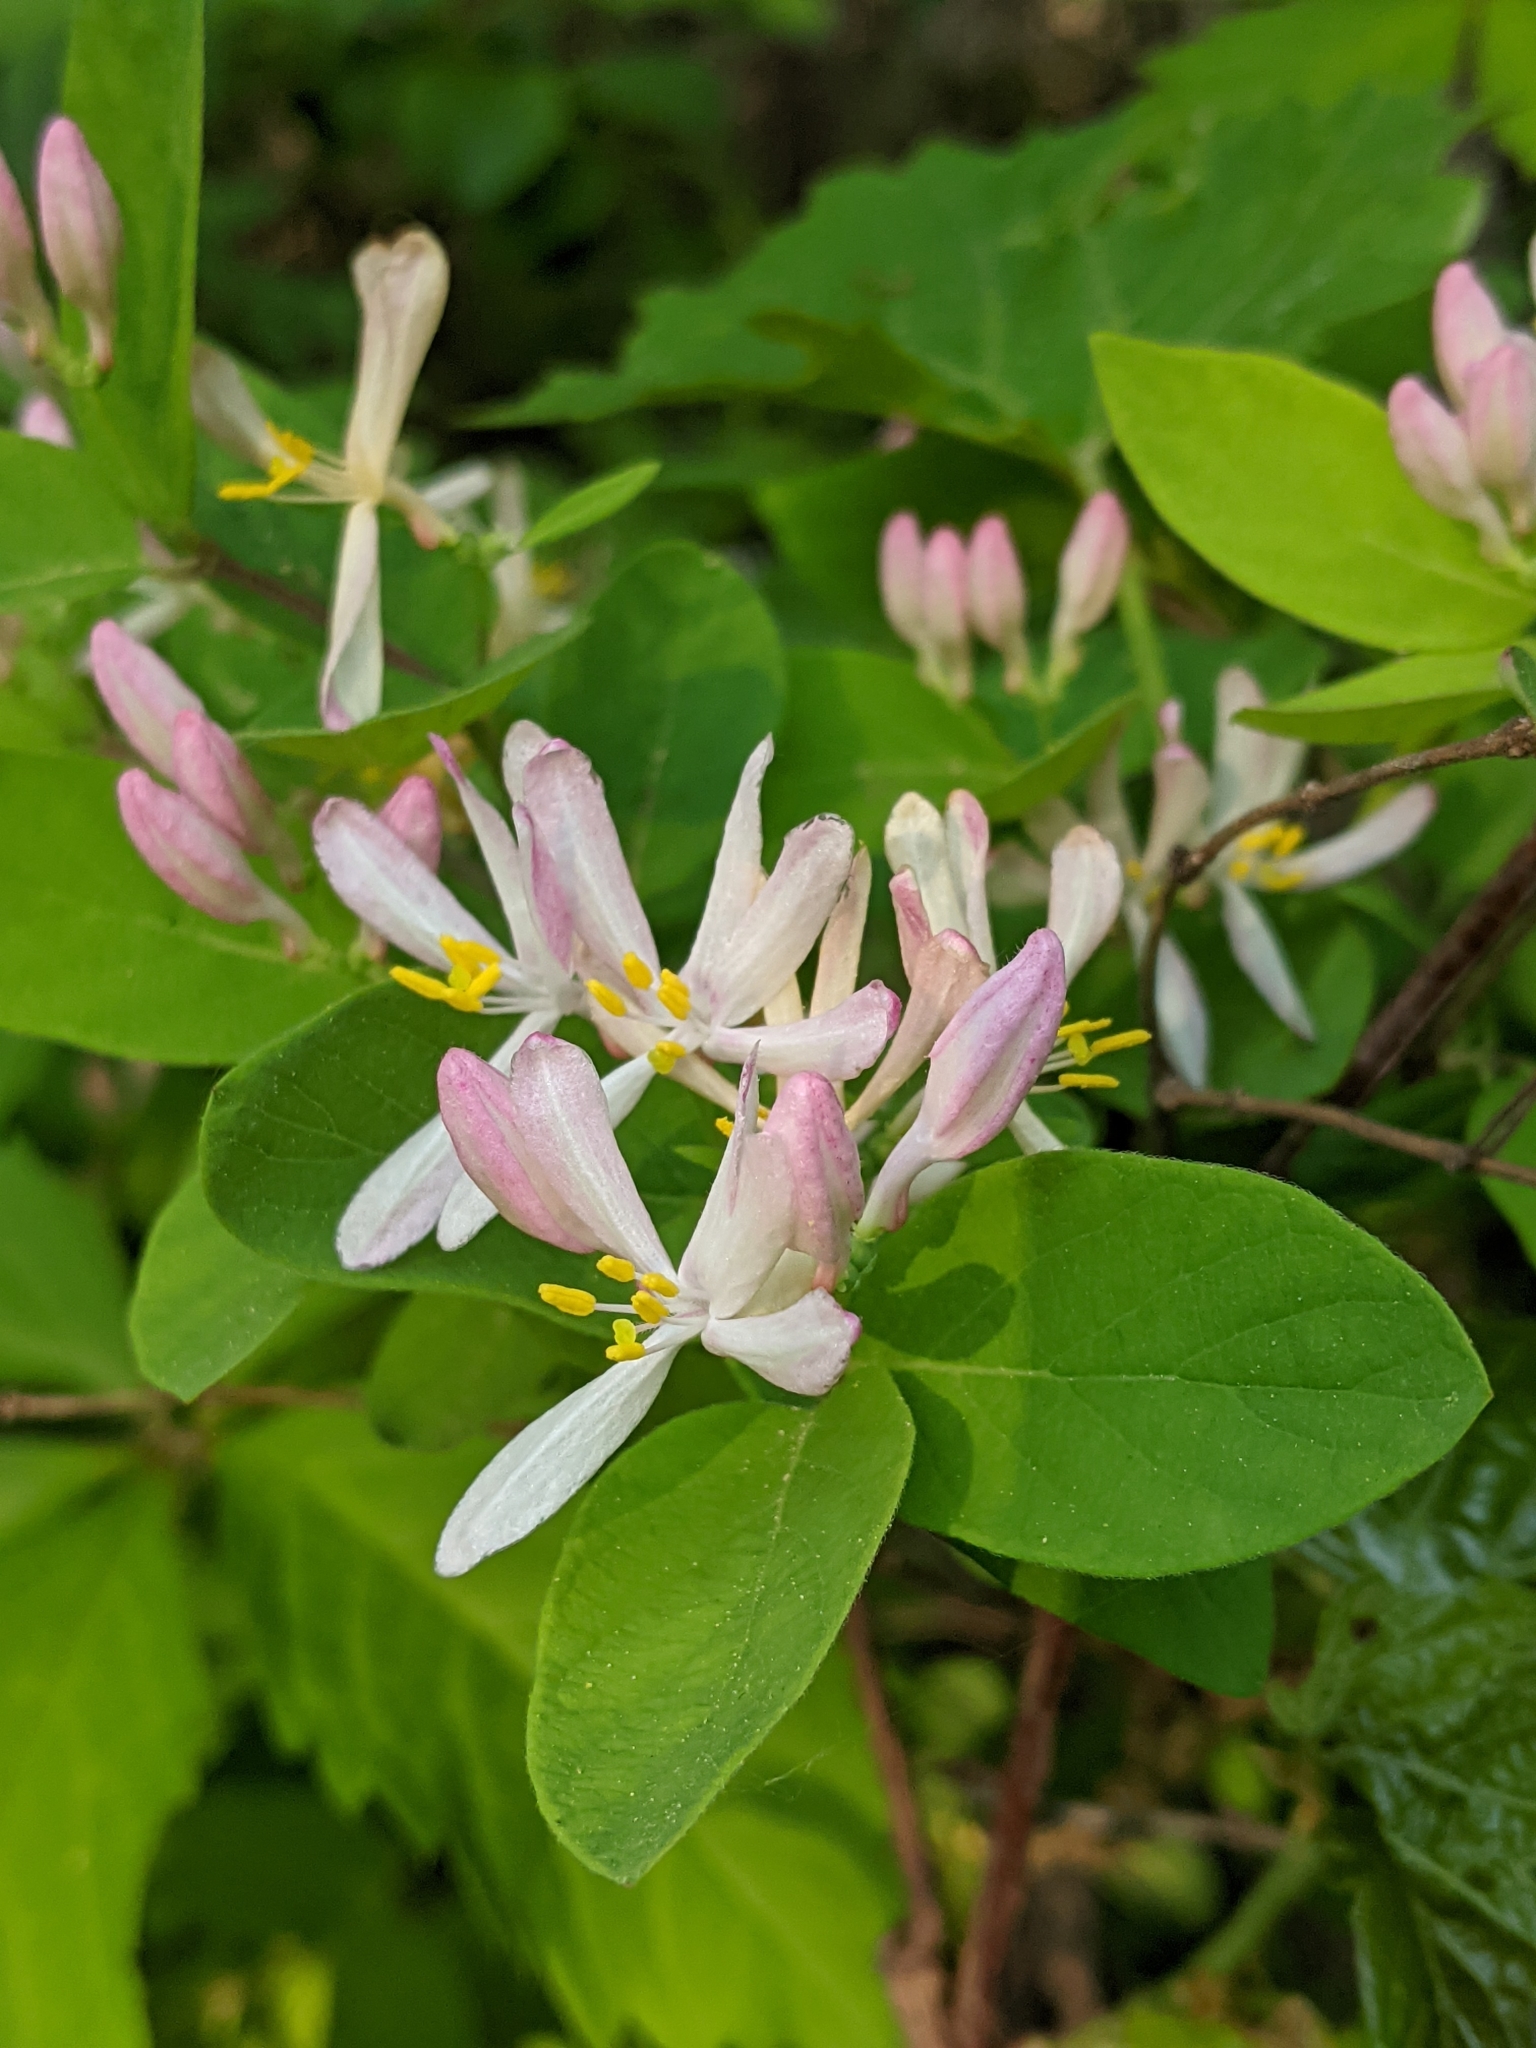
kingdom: Plantae
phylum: Tracheophyta
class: Magnoliopsida
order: Dipsacales
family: Caprifoliaceae
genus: Lonicera
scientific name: Lonicera bella
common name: Bell's honeysuckle
